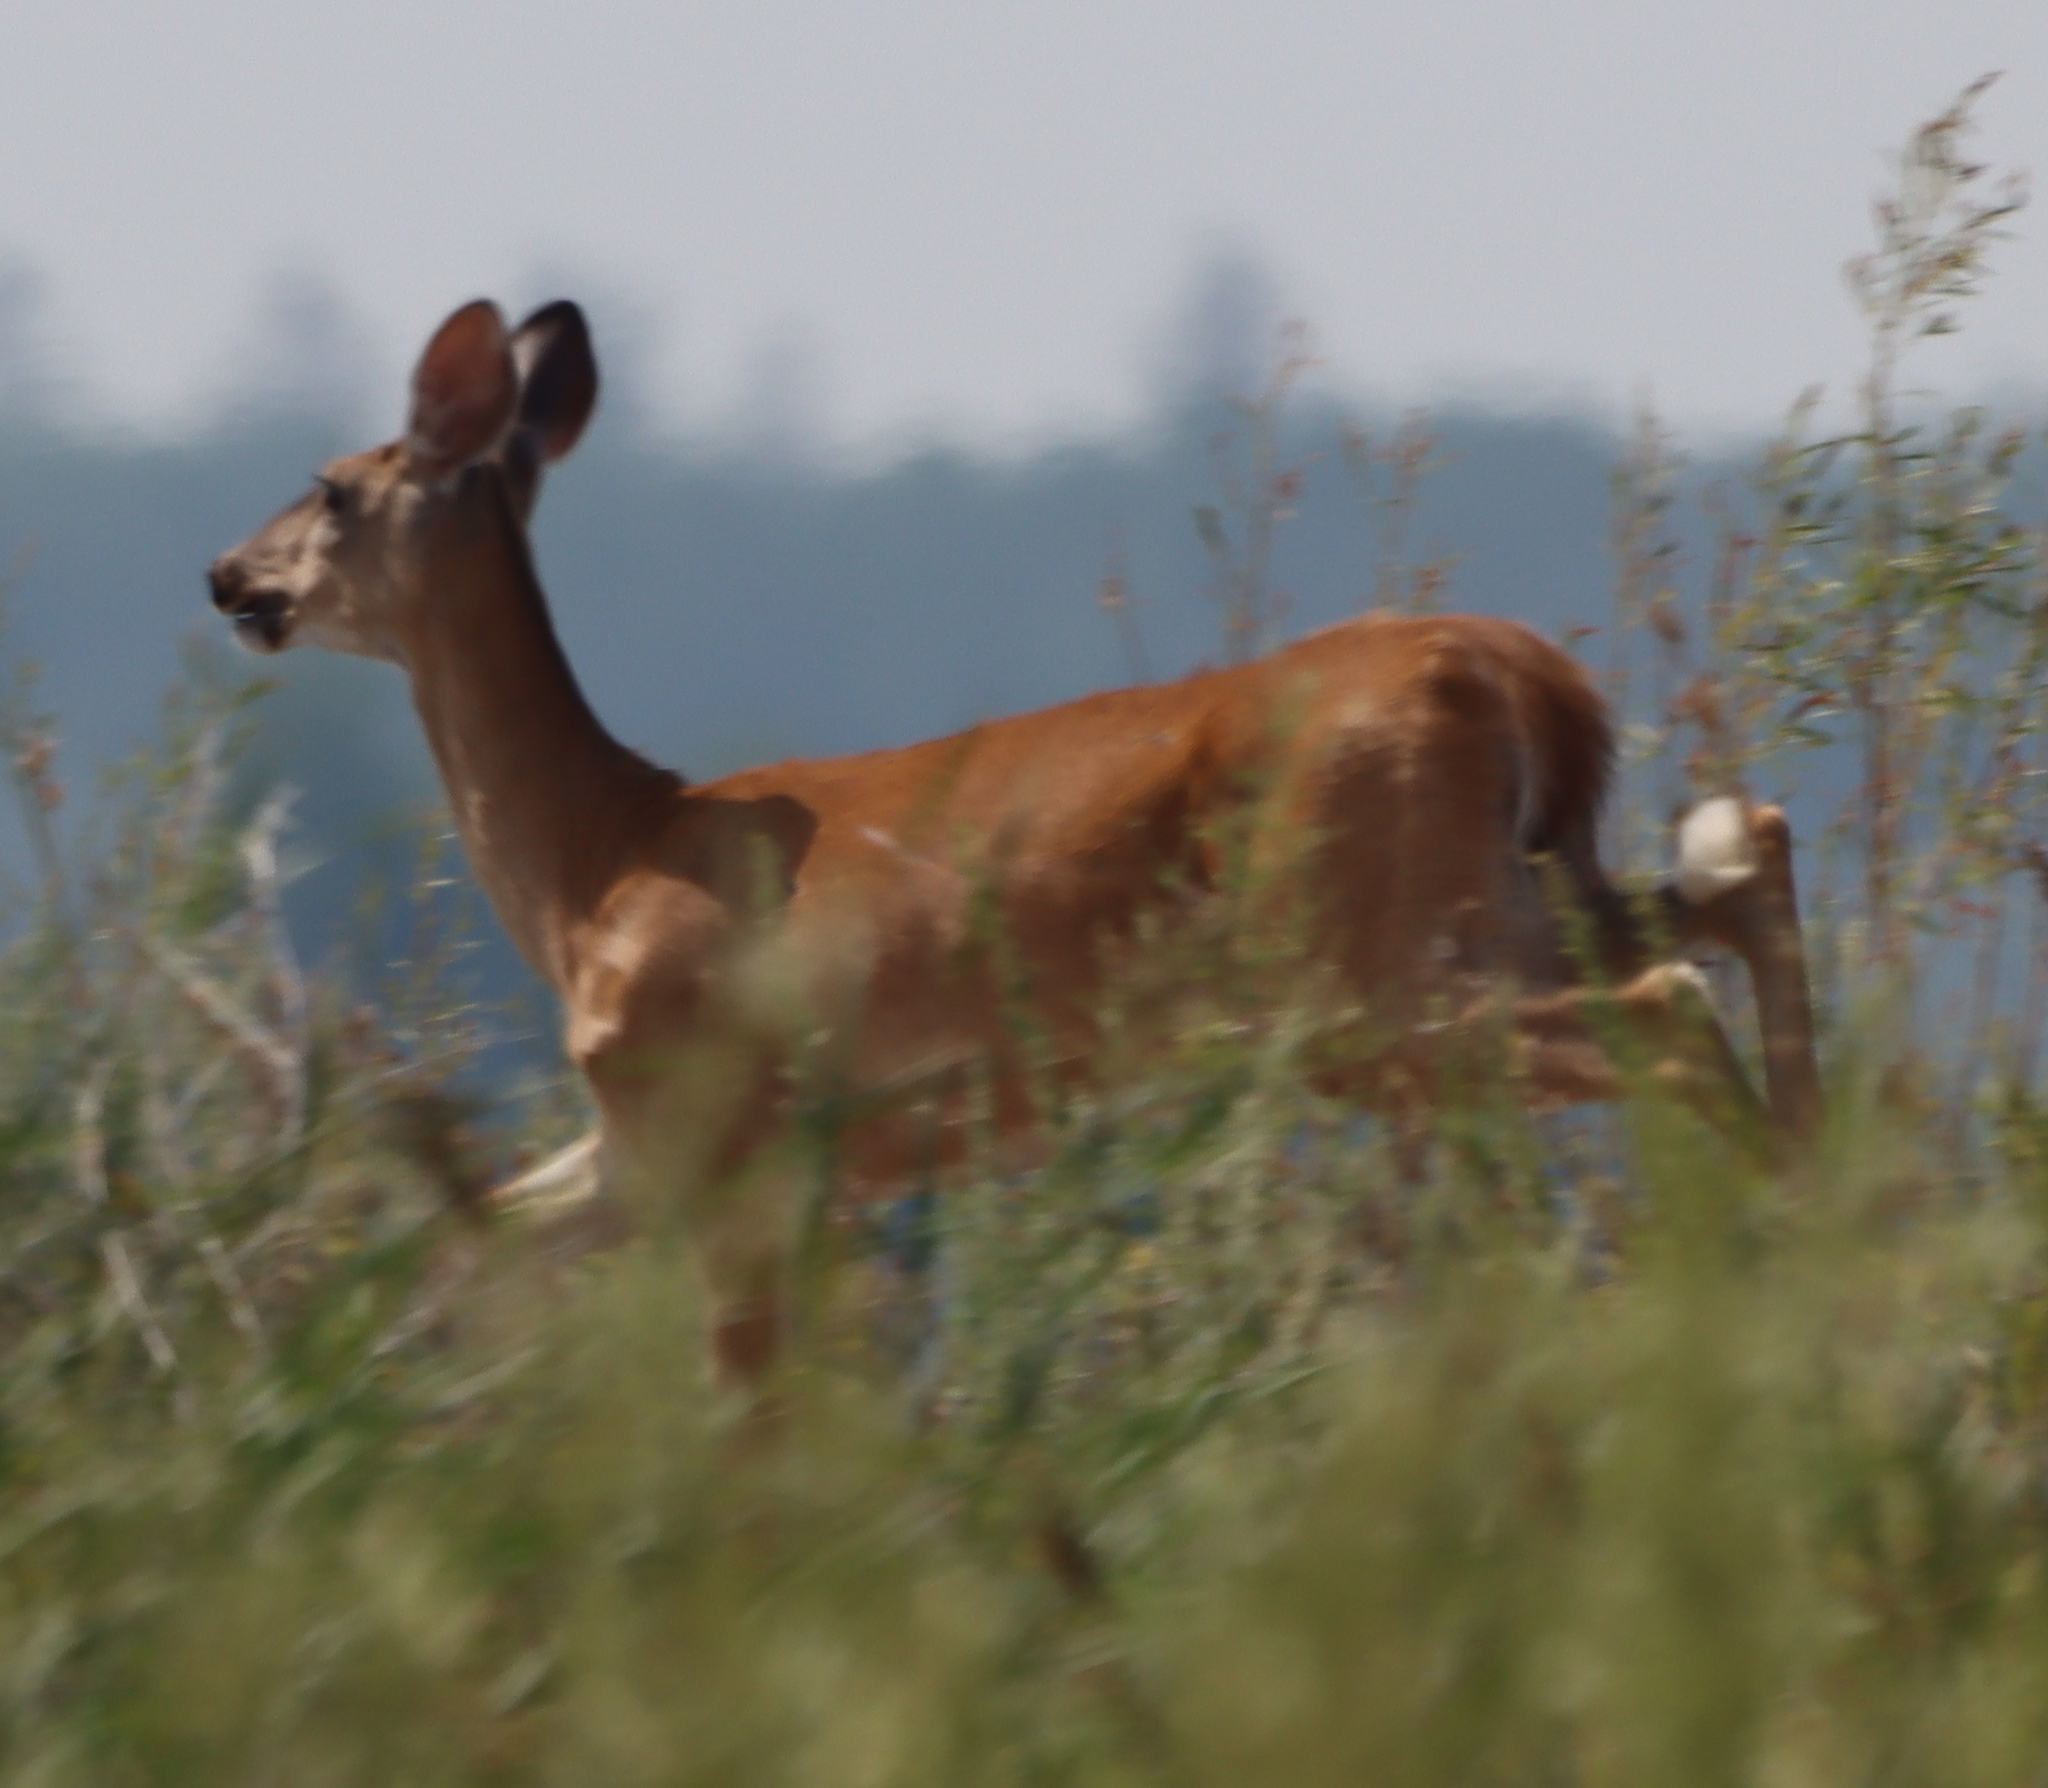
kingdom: Animalia
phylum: Chordata
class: Mammalia
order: Artiodactyla
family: Cervidae
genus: Odocoileus
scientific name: Odocoileus virginianus
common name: White-tailed deer
